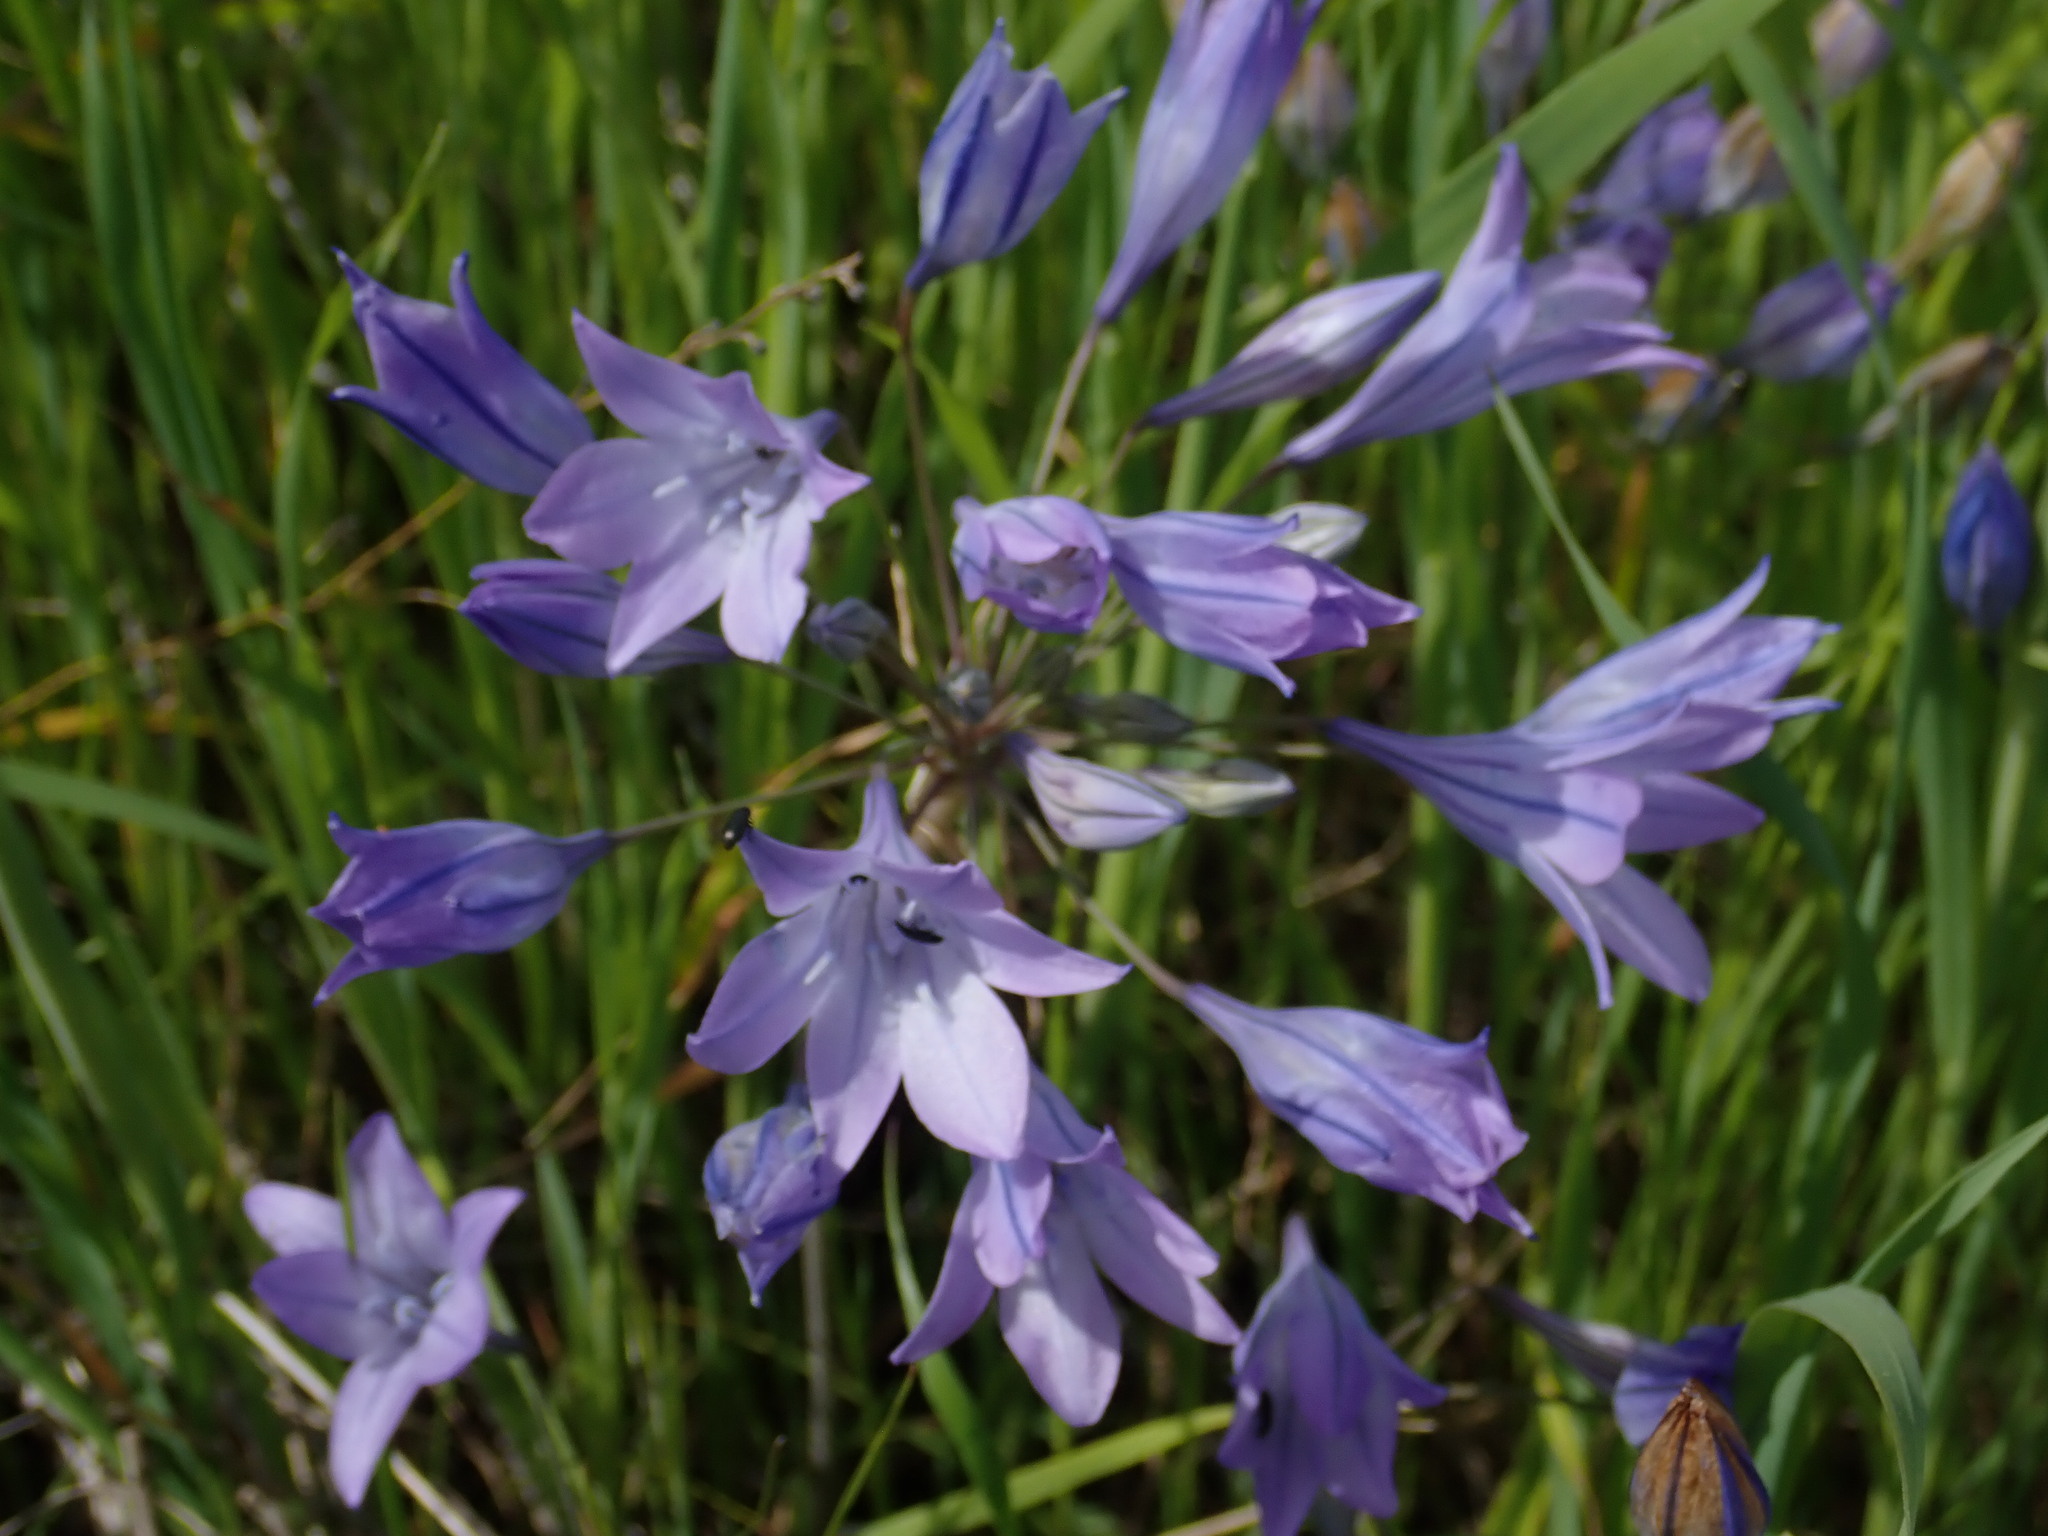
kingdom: Plantae
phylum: Tracheophyta
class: Liliopsida
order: Asparagales
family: Asparagaceae
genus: Triteleia
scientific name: Triteleia laxa
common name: Triplet-lily
